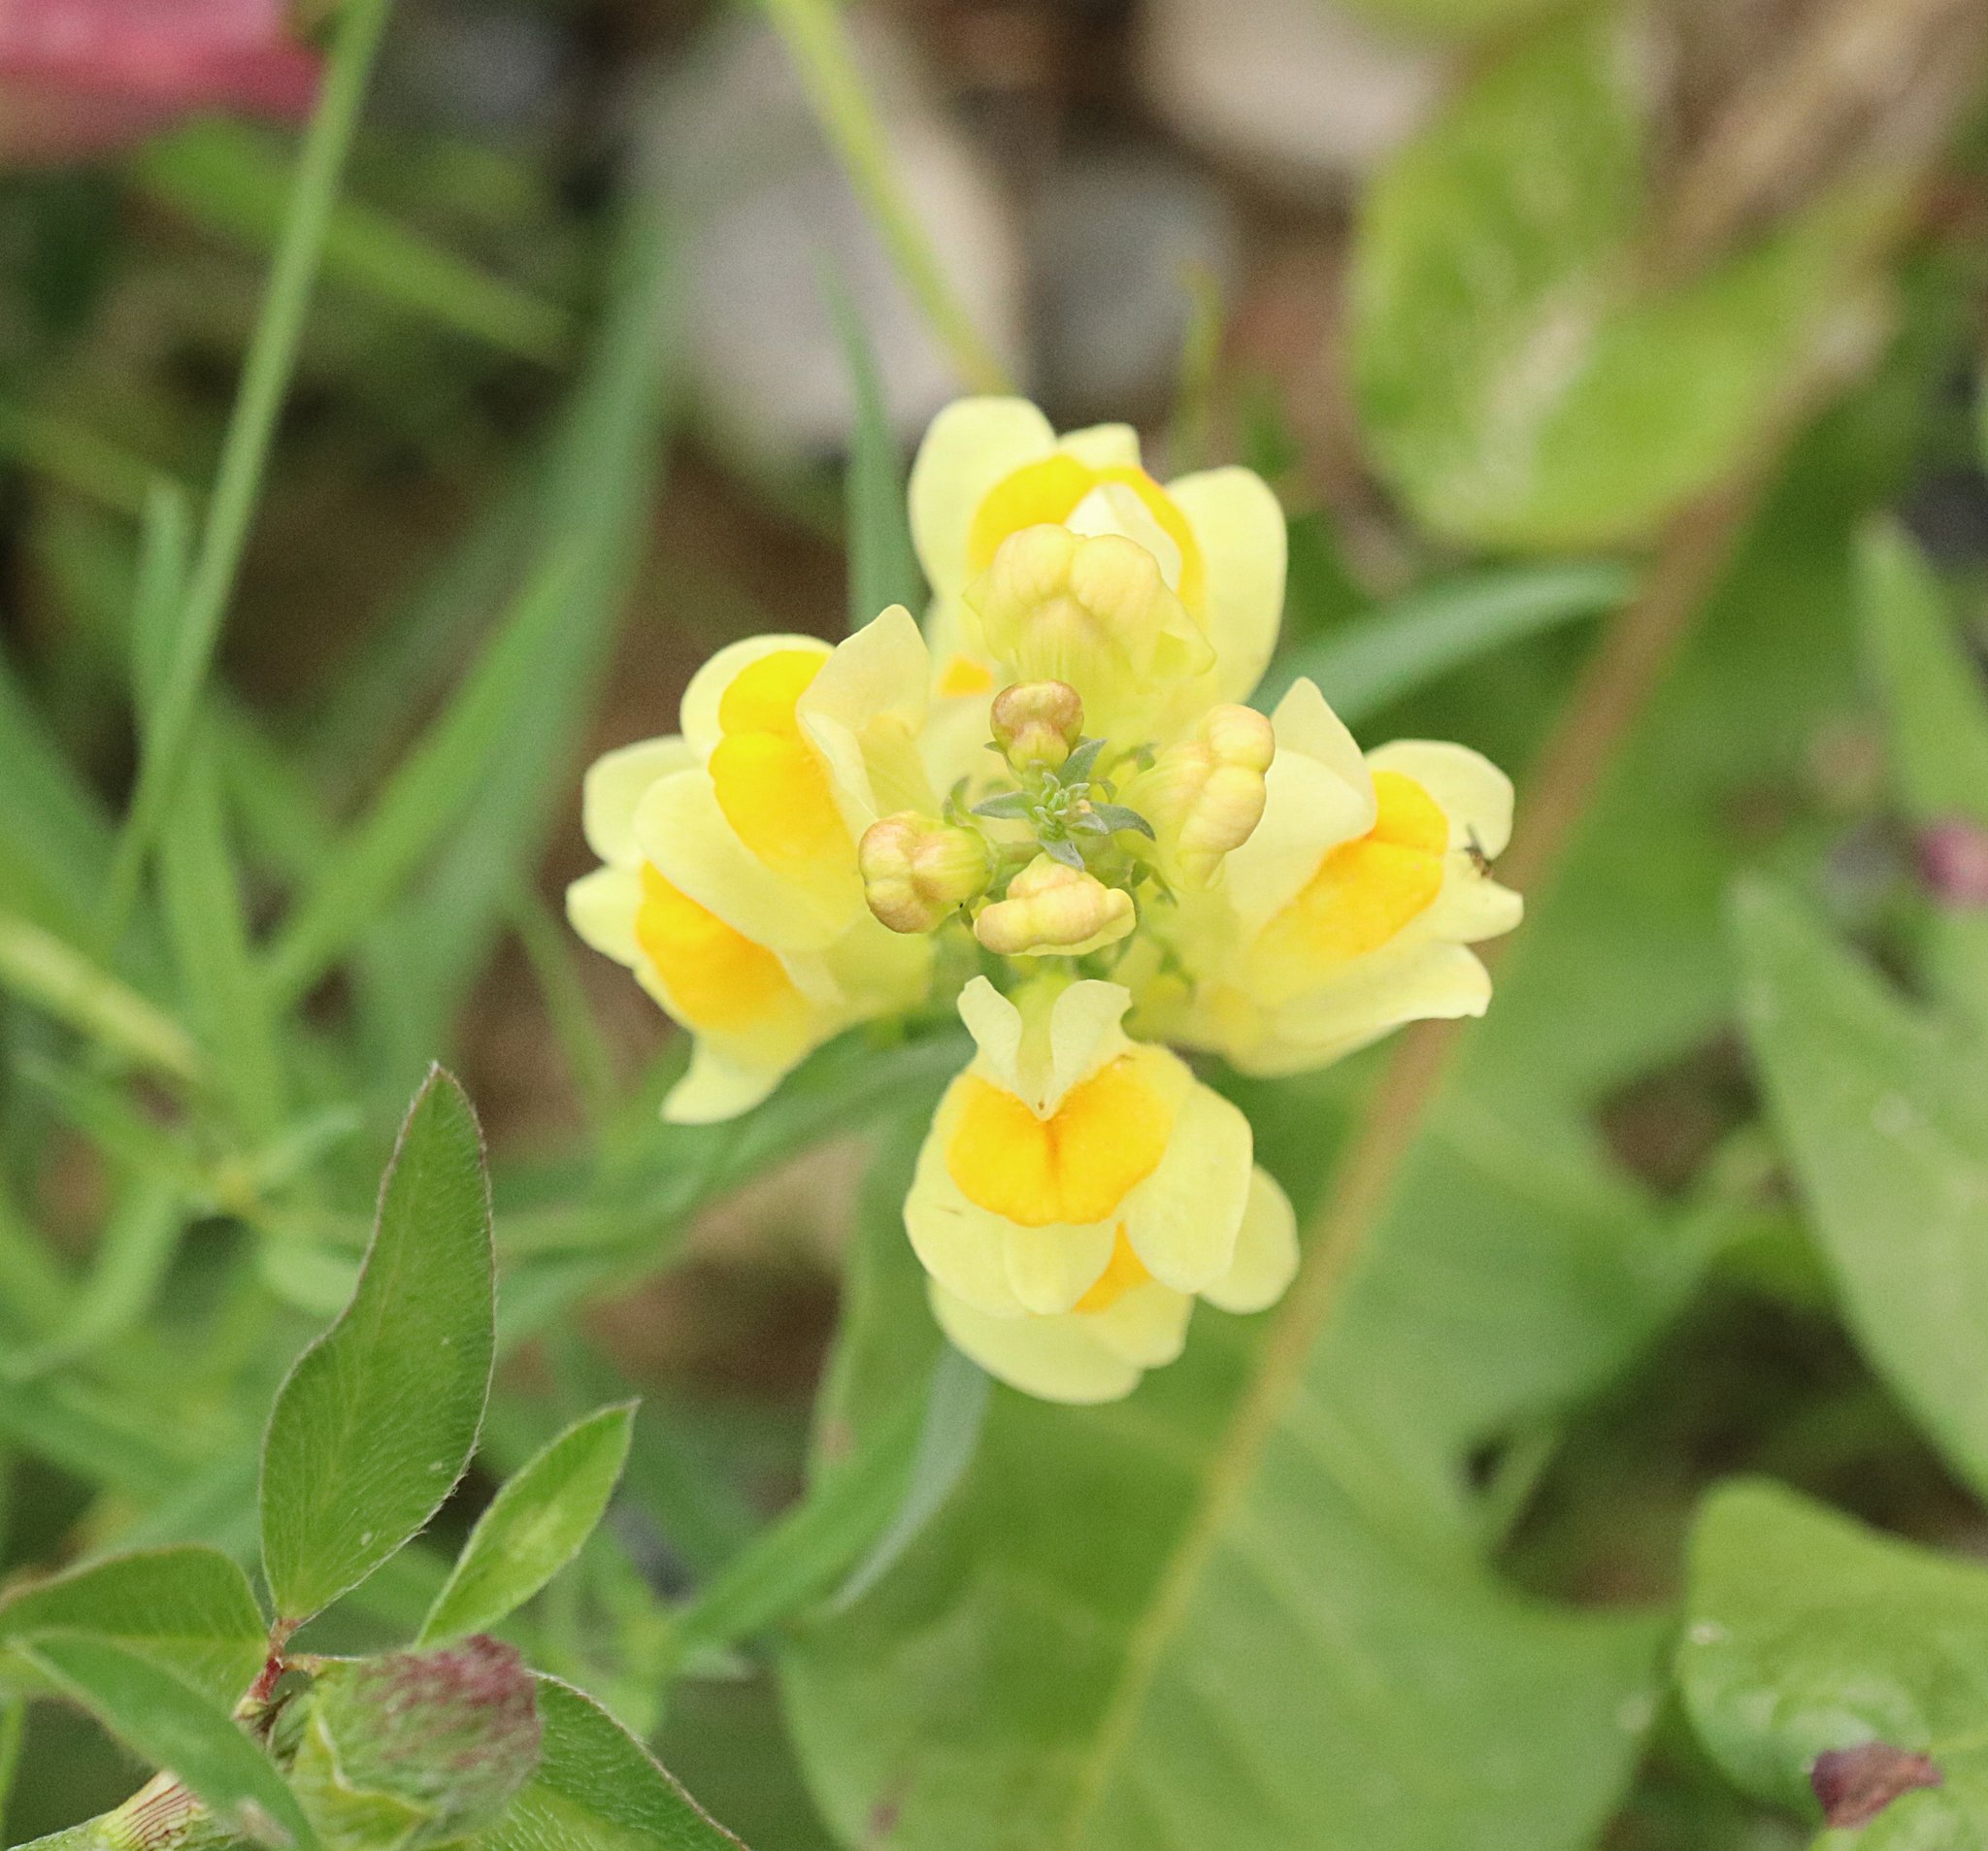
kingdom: Plantae
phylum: Tracheophyta
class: Magnoliopsida
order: Lamiales
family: Plantaginaceae
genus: Linaria
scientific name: Linaria vulgaris
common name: Butter and eggs
